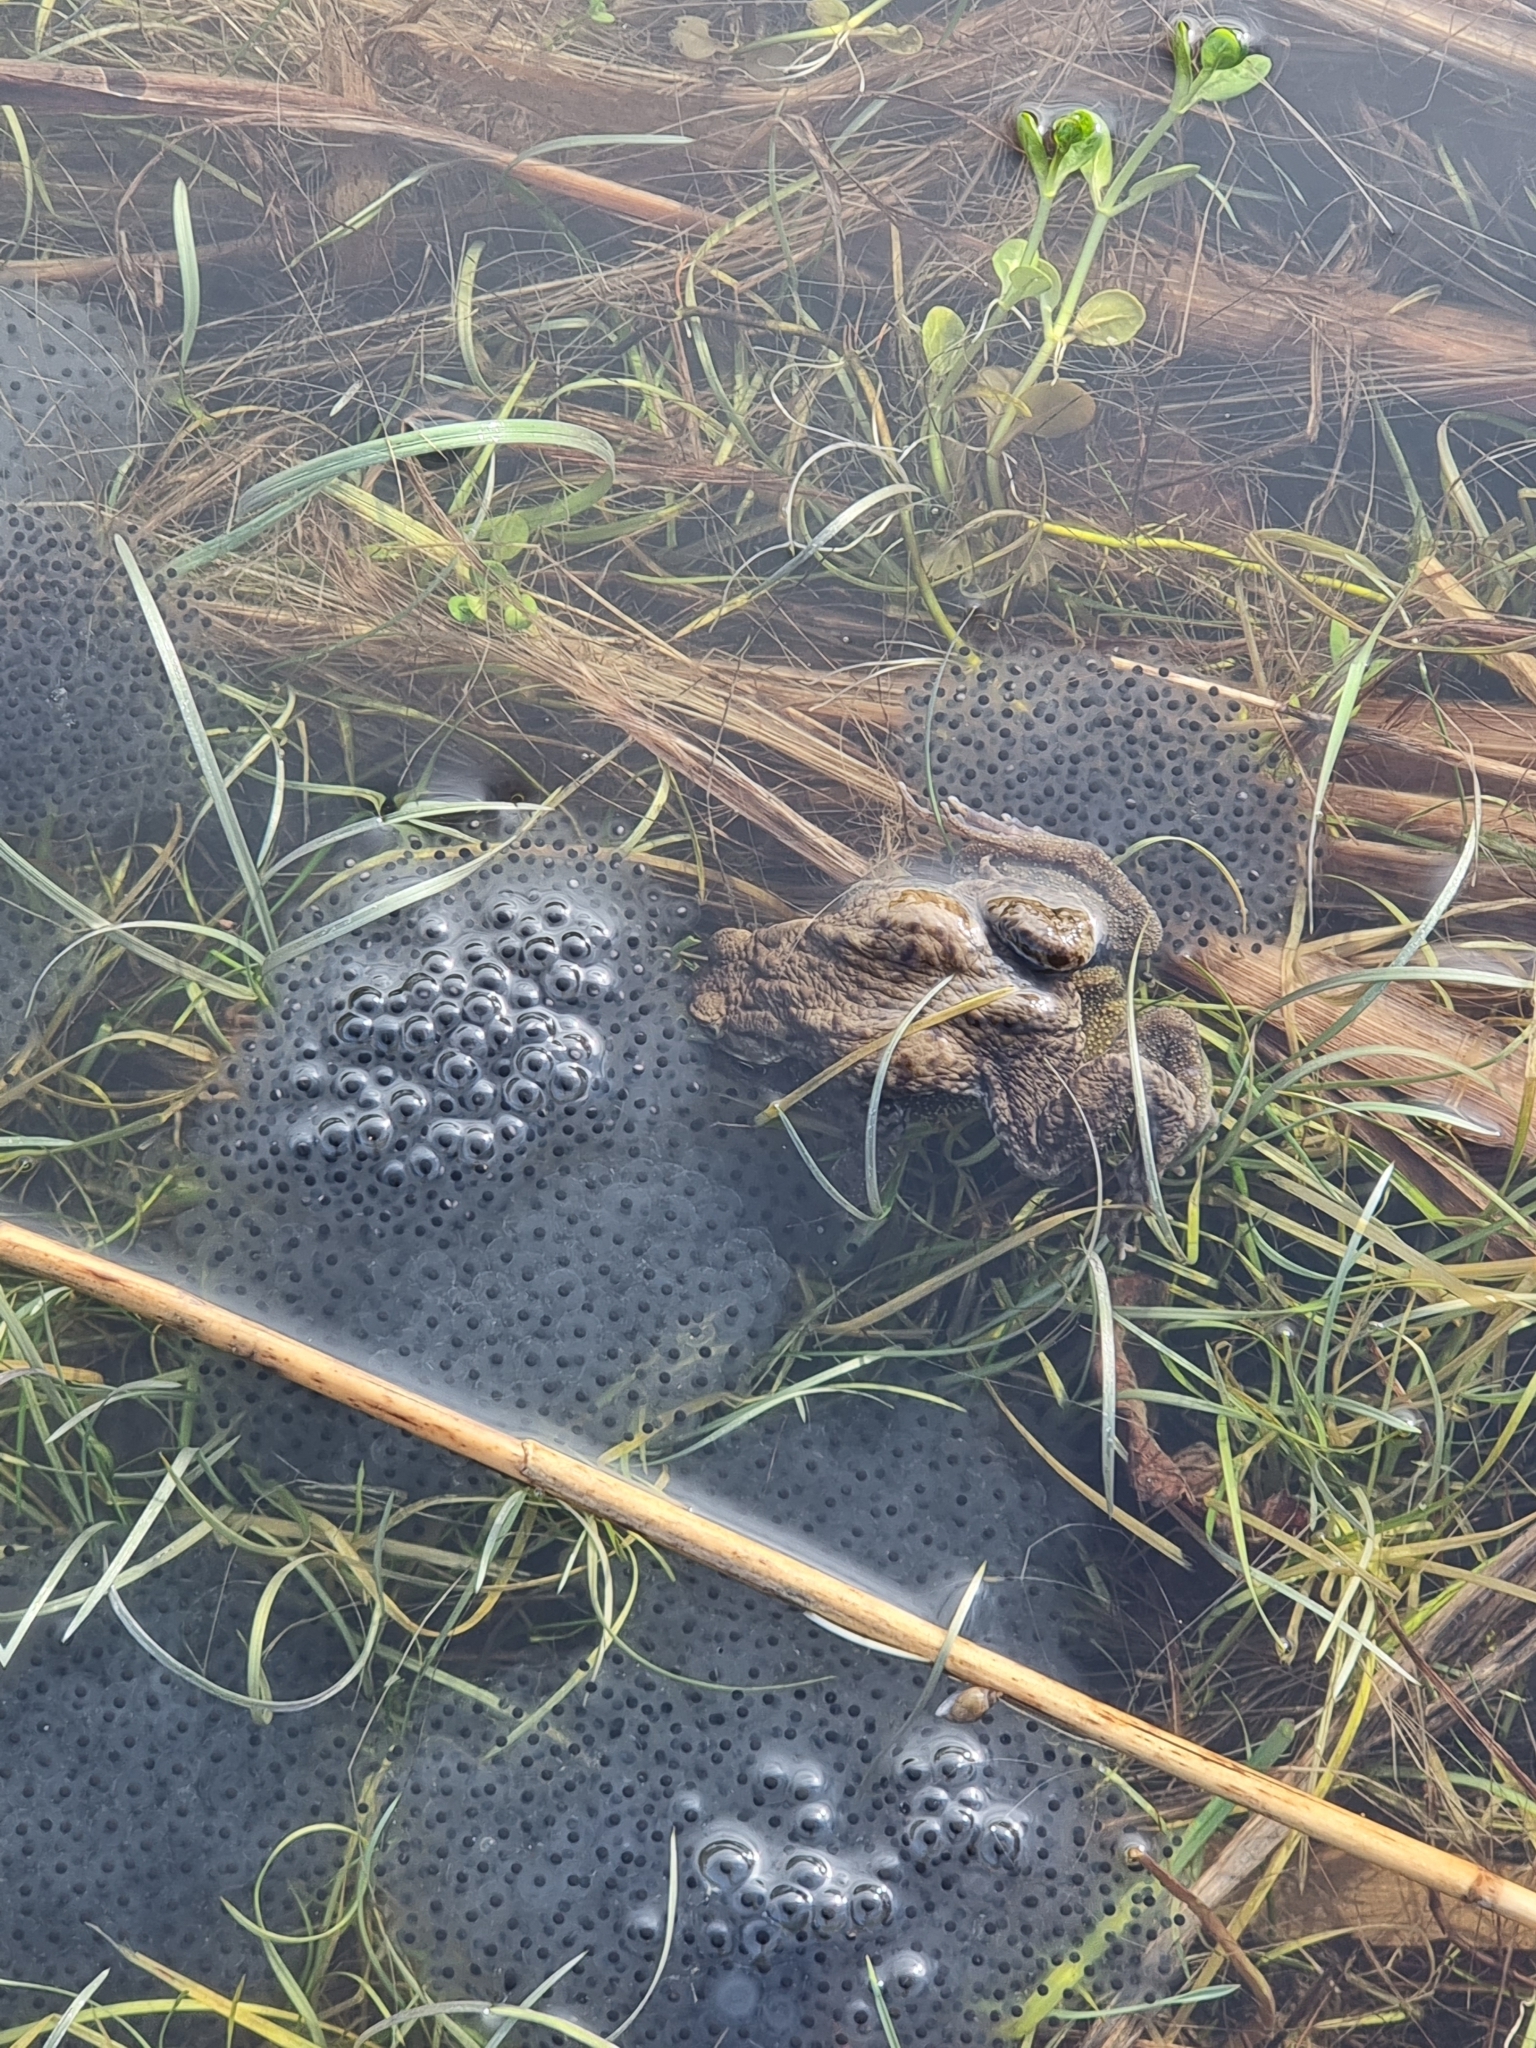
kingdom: Animalia
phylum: Chordata
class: Amphibia
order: Anura
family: Ranidae
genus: Rana
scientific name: Rana temporaria
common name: Common frog
